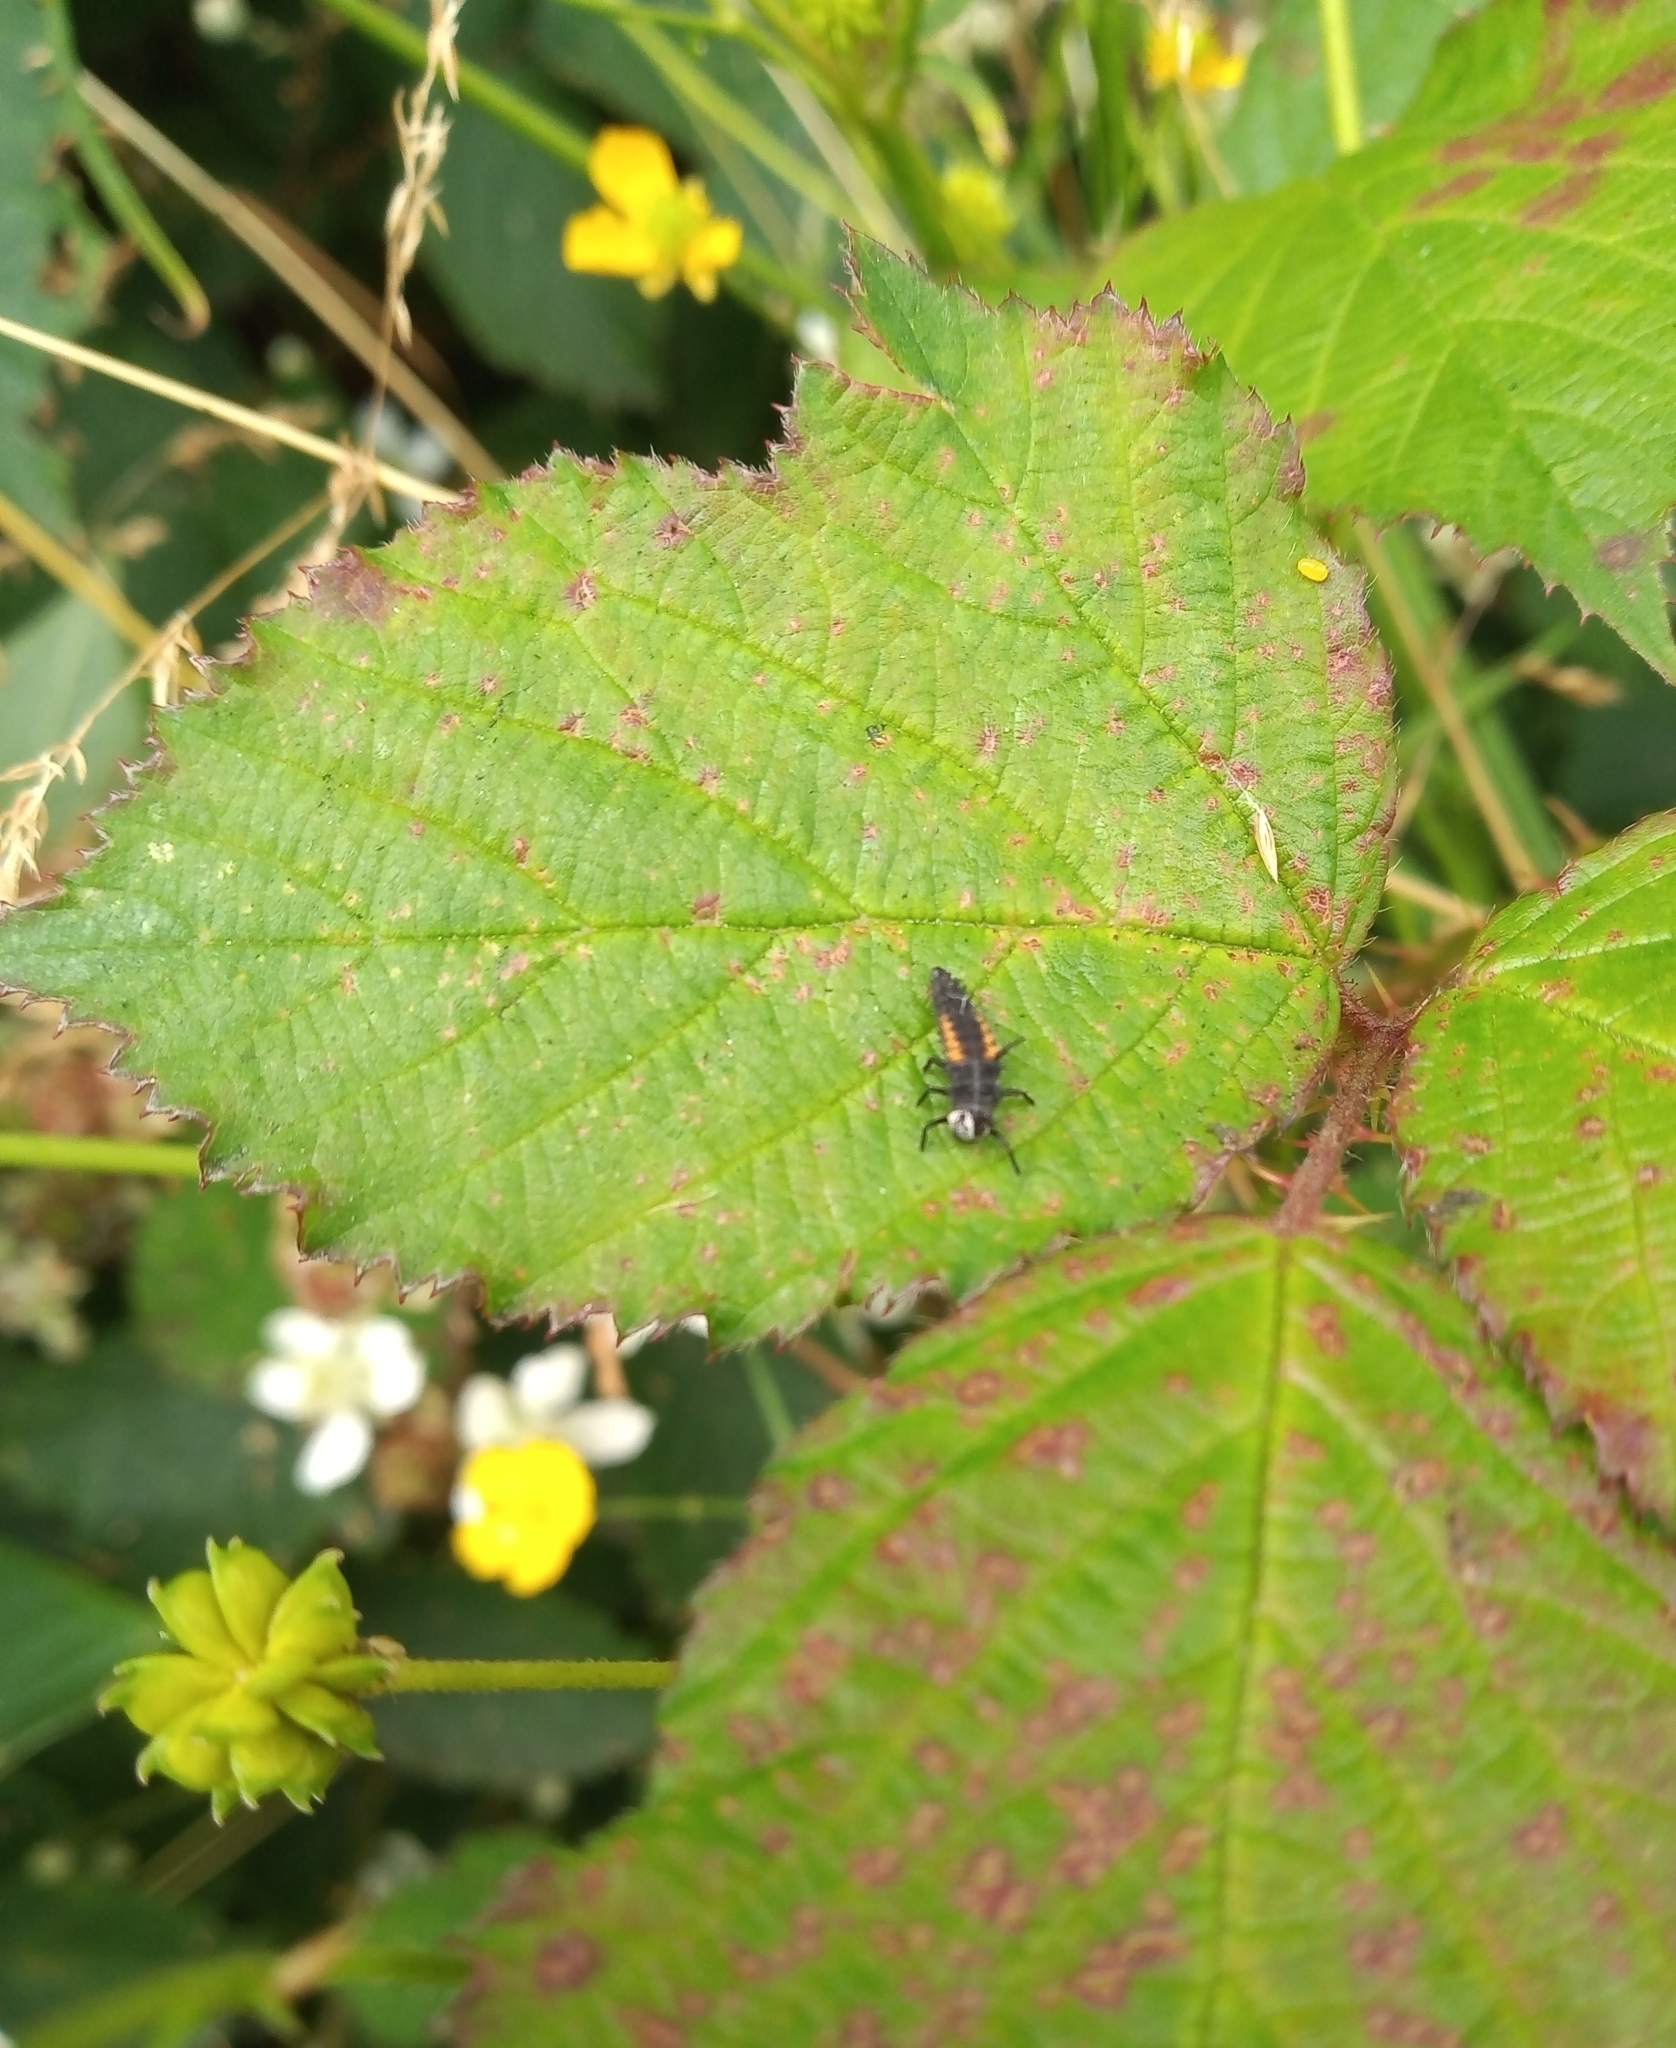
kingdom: Animalia
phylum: Arthropoda
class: Insecta
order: Coleoptera
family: Coccinellidae
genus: Harmonia
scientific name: Harmonia axyridis
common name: Harlequin ladybird
